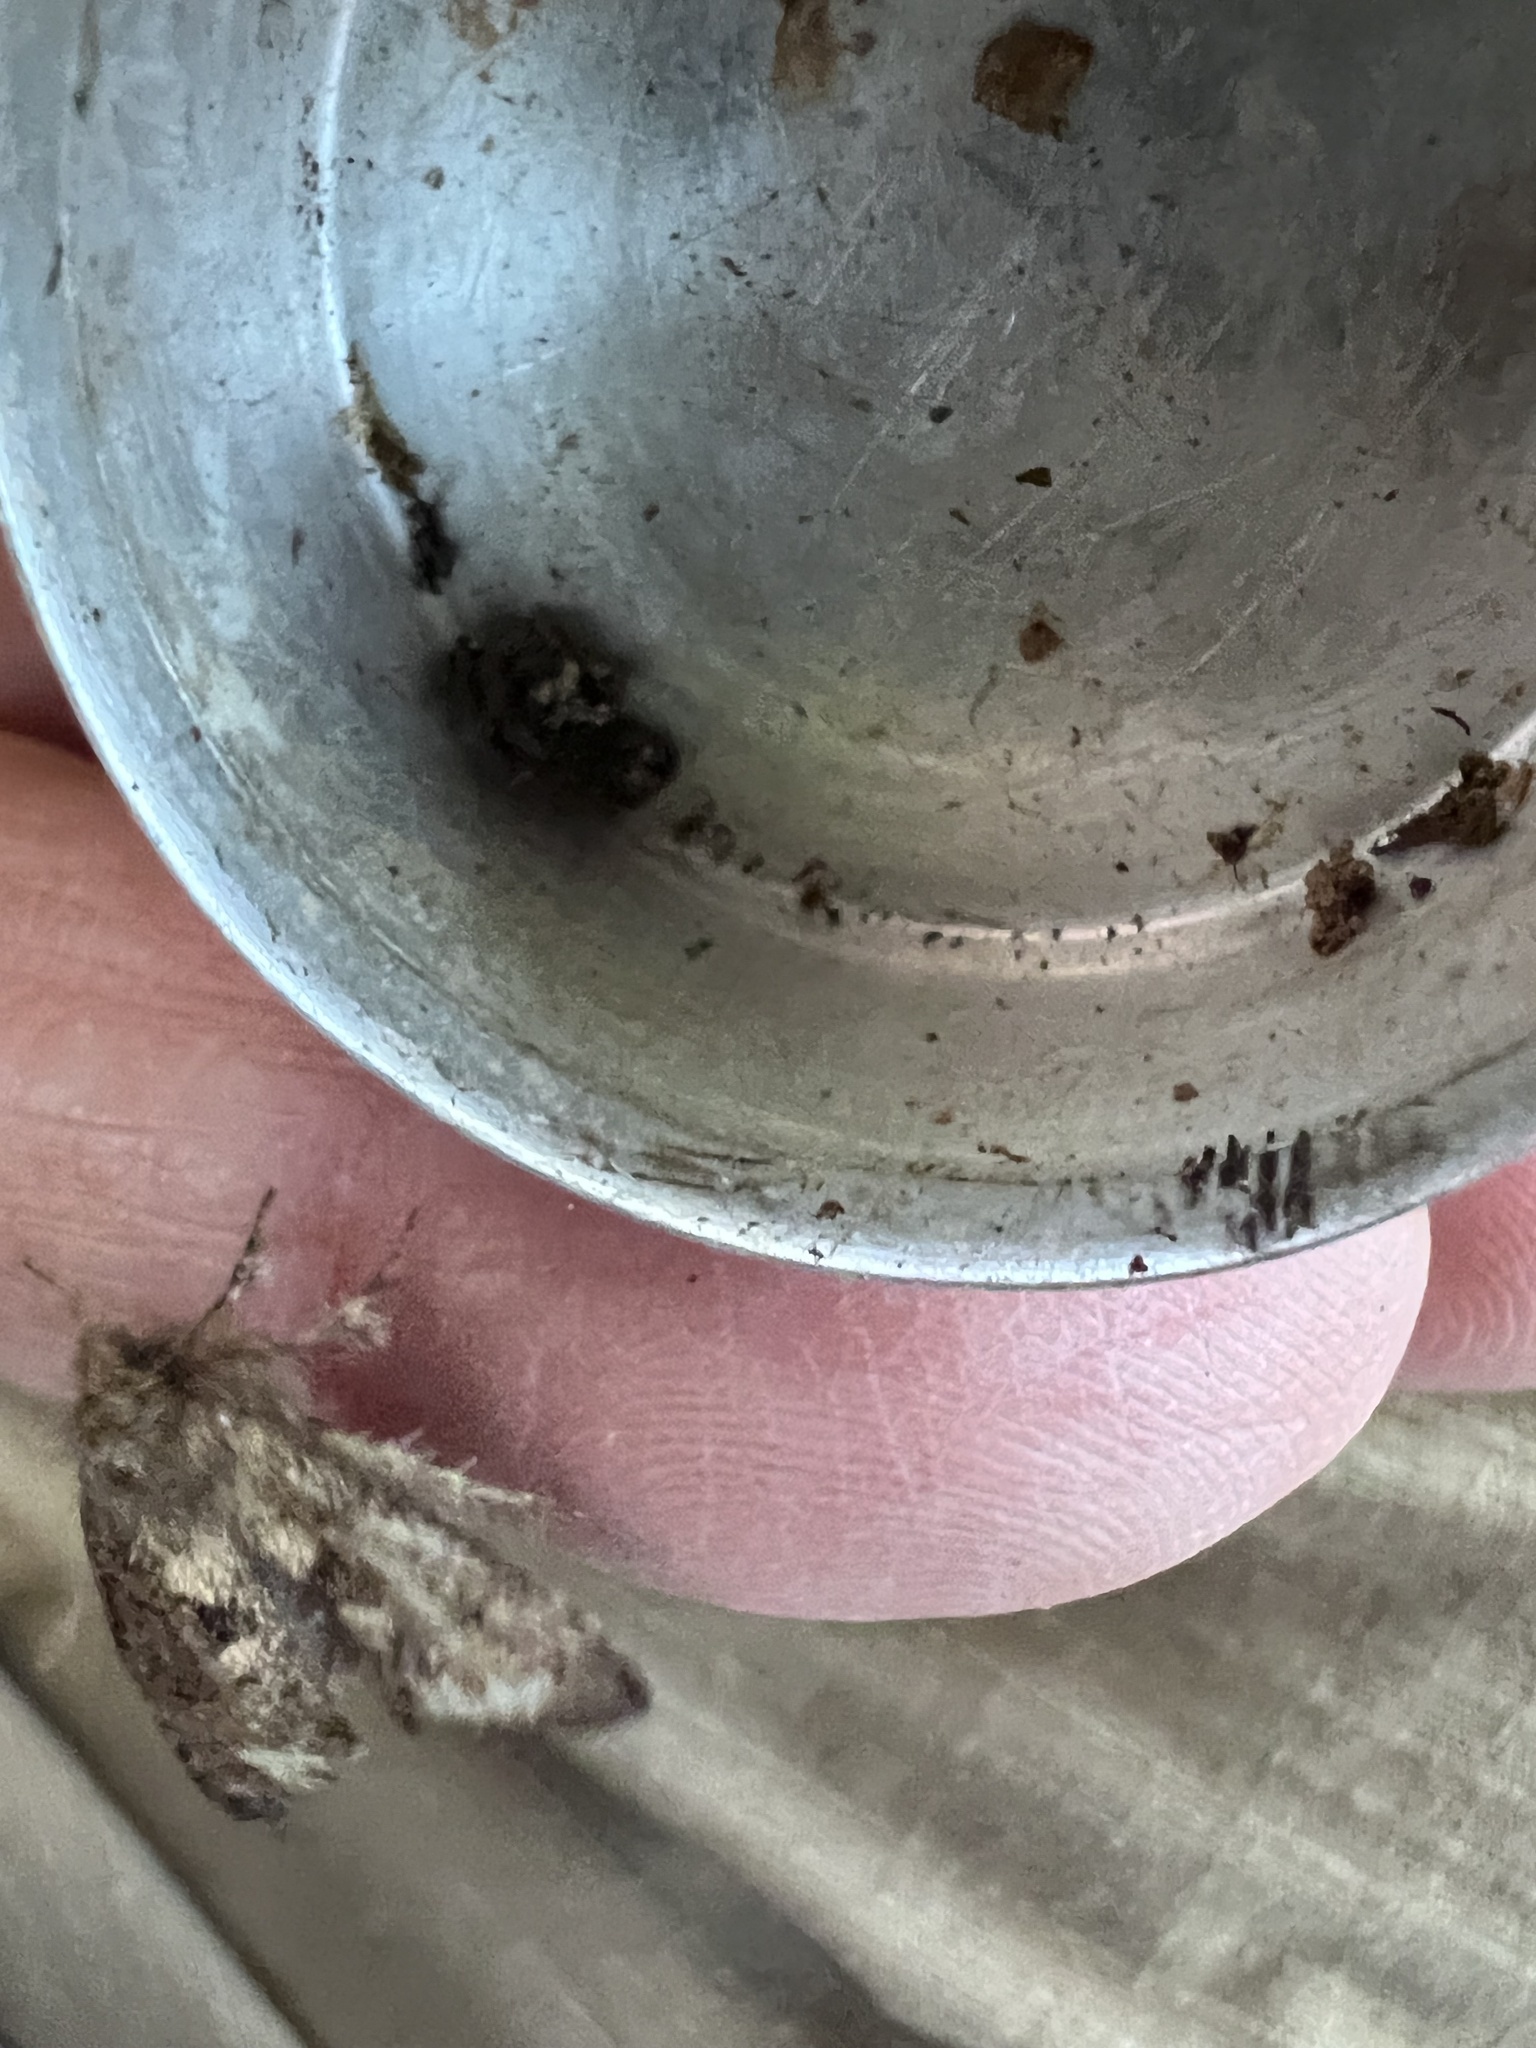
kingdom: Animalia
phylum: Arthropoda
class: Insecta
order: Lepidoptera
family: Tineidae
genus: Acrolophus
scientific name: Acrolophus mora
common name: Dark acrolophus
